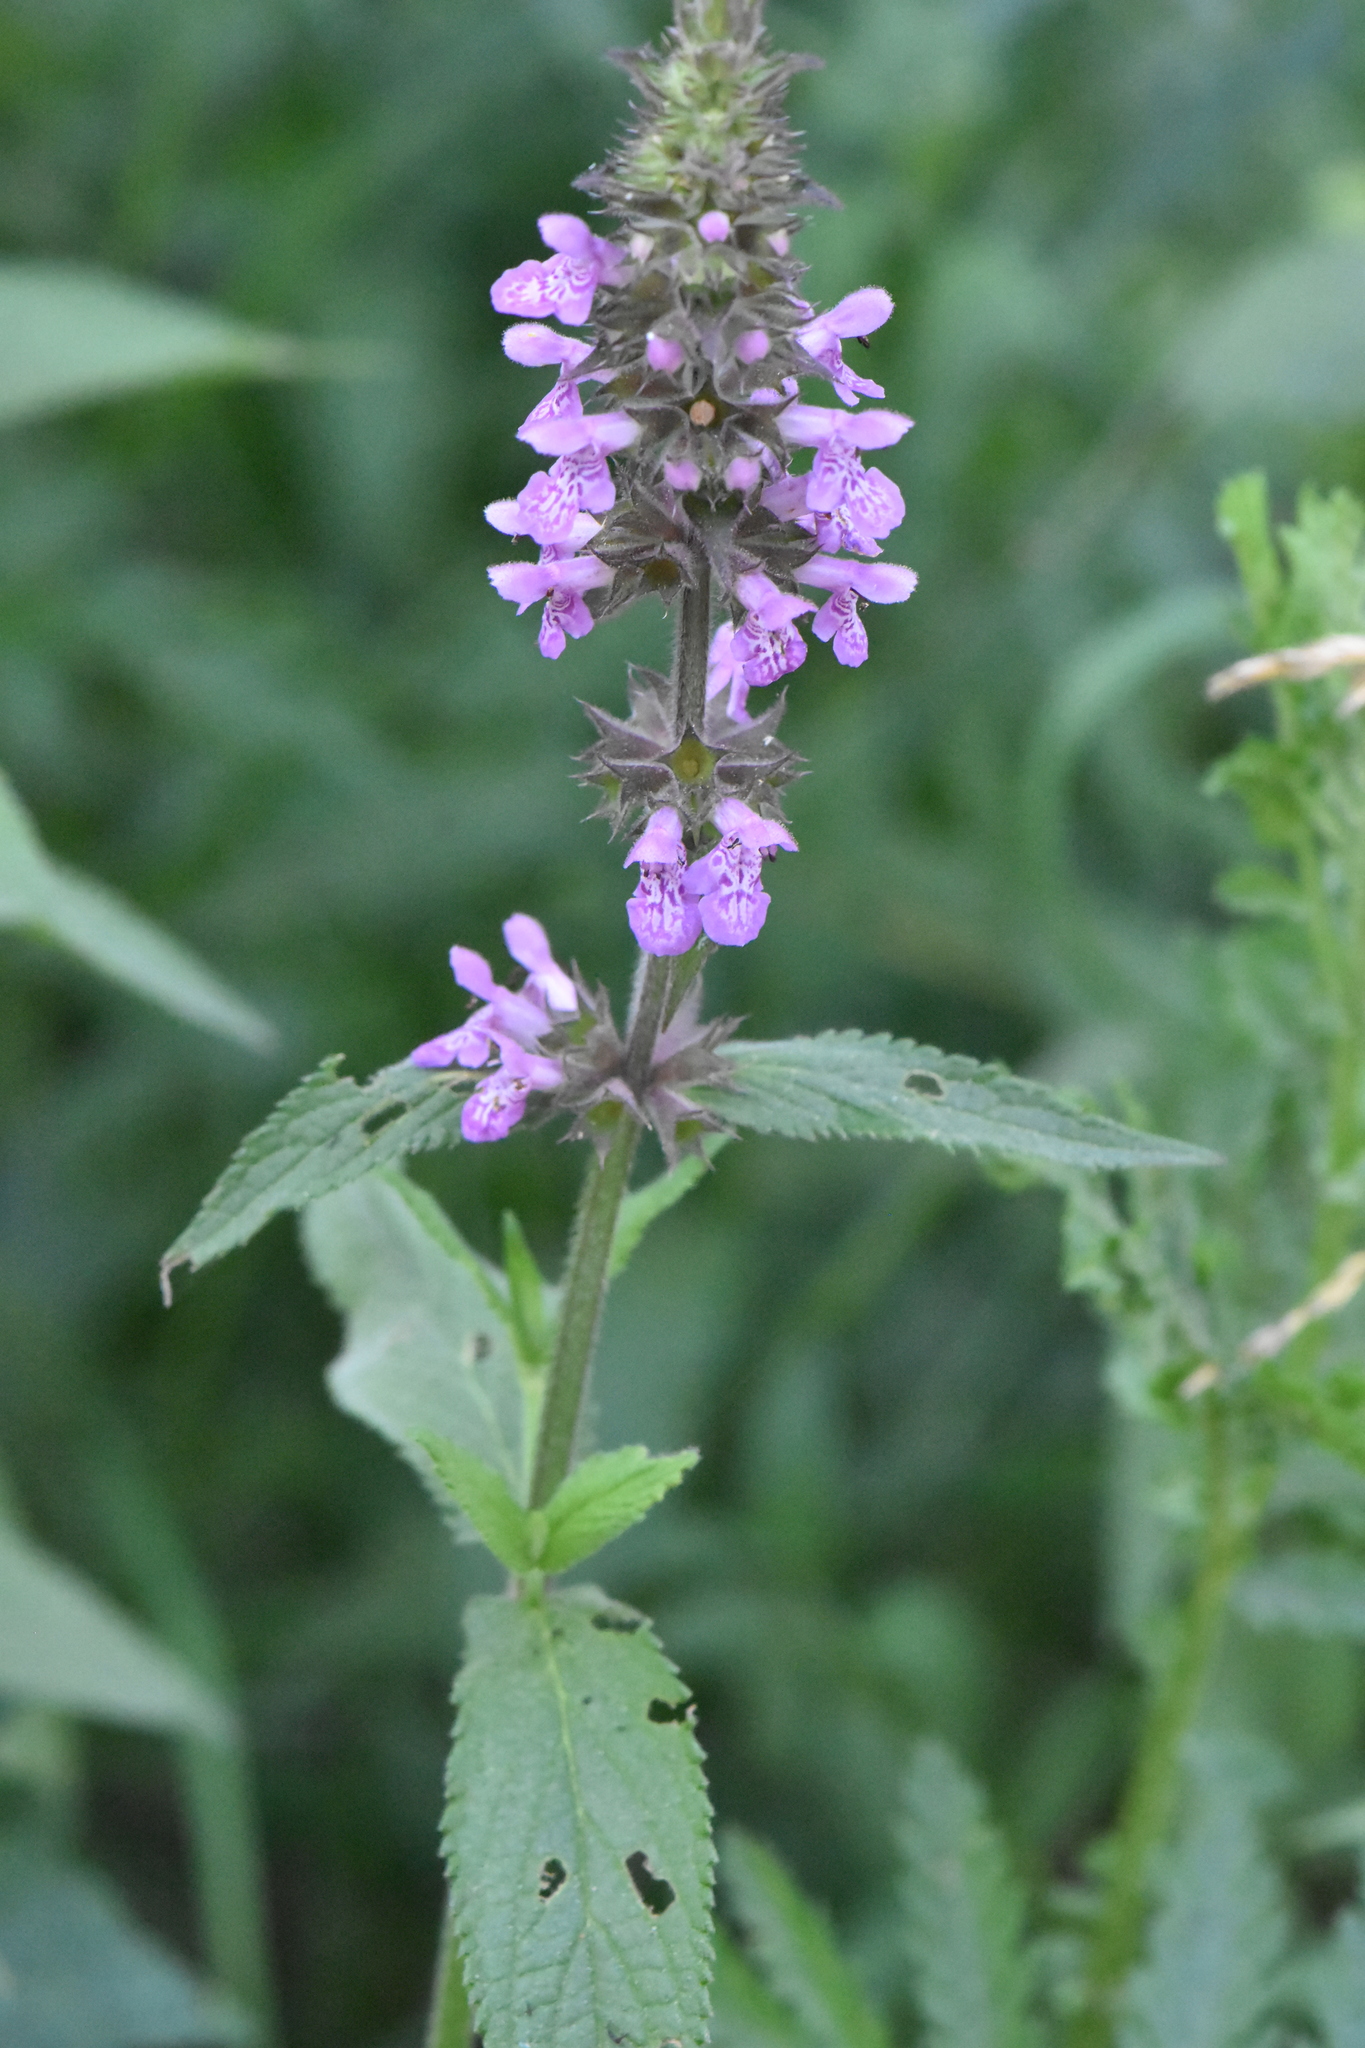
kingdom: Plantae
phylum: Tracheophyta
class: Magnoliopsida
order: Lamiales
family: Lamiaceae
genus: Stachys
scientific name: Stachys palustris
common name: Marsh woundwort
